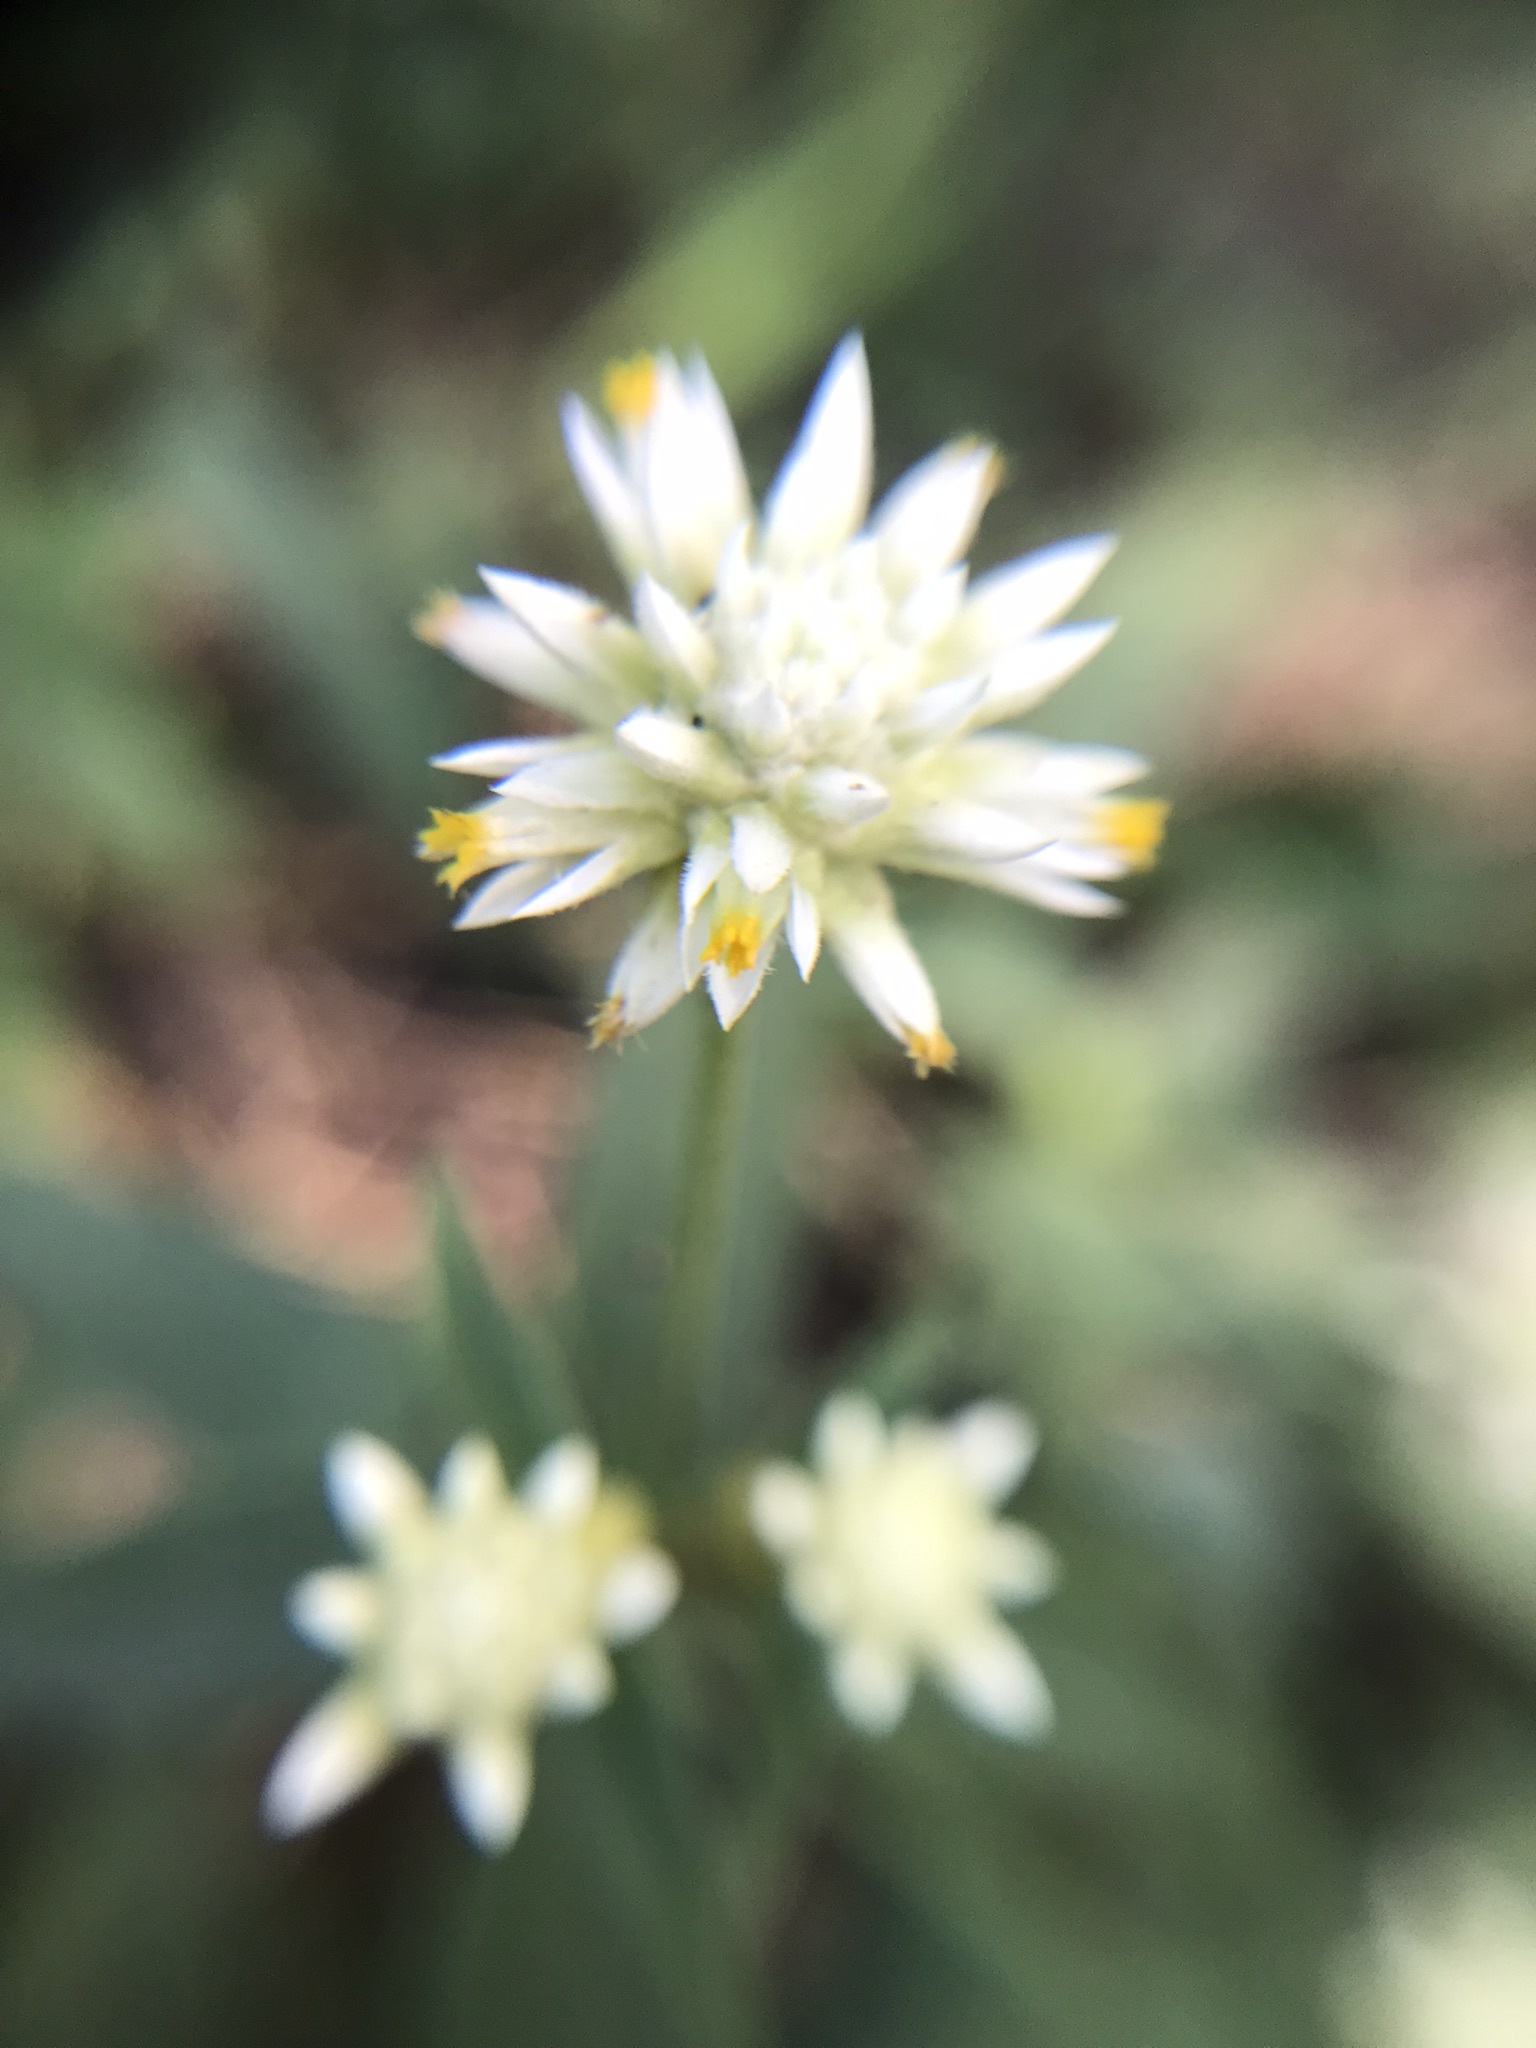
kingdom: Plantae
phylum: Tracheophyta
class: Magnoliopsida
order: Caryophyllales
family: Amaranthaceae
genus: Gomphrena
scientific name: Gomphrena elegans
